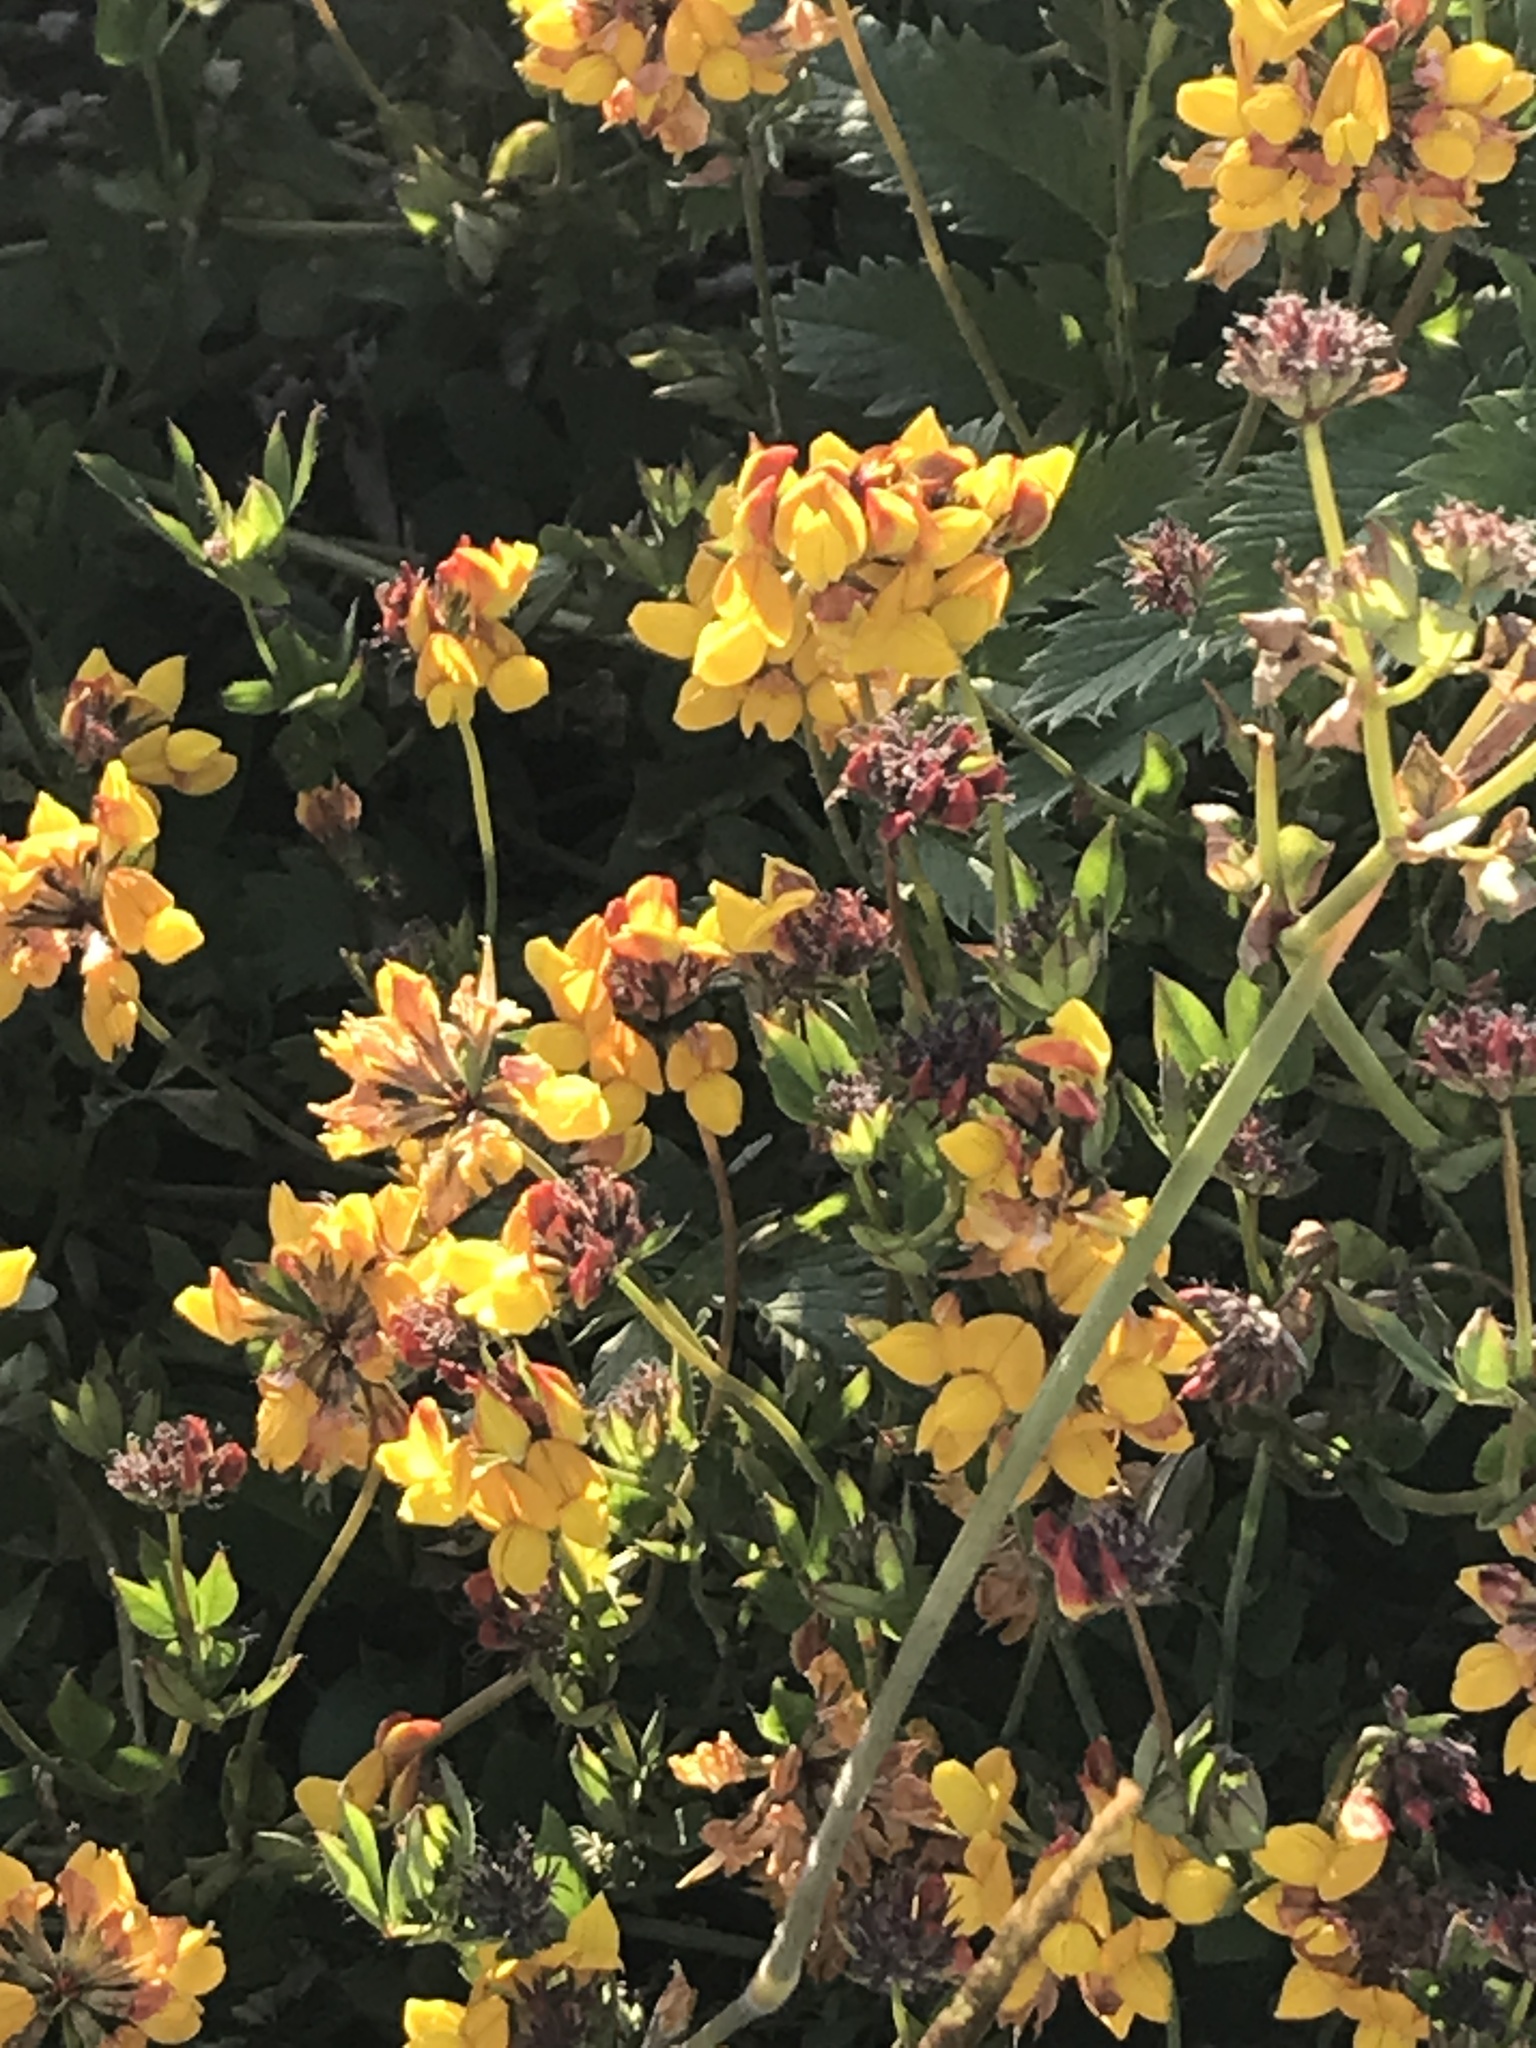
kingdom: Plantae
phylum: Tracheophyta
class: Magnoliopsida
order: Fabales
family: Fabaceae
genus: Lotus
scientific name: Lotus pedunculatus
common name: Greater birdsfoot-trefoil
